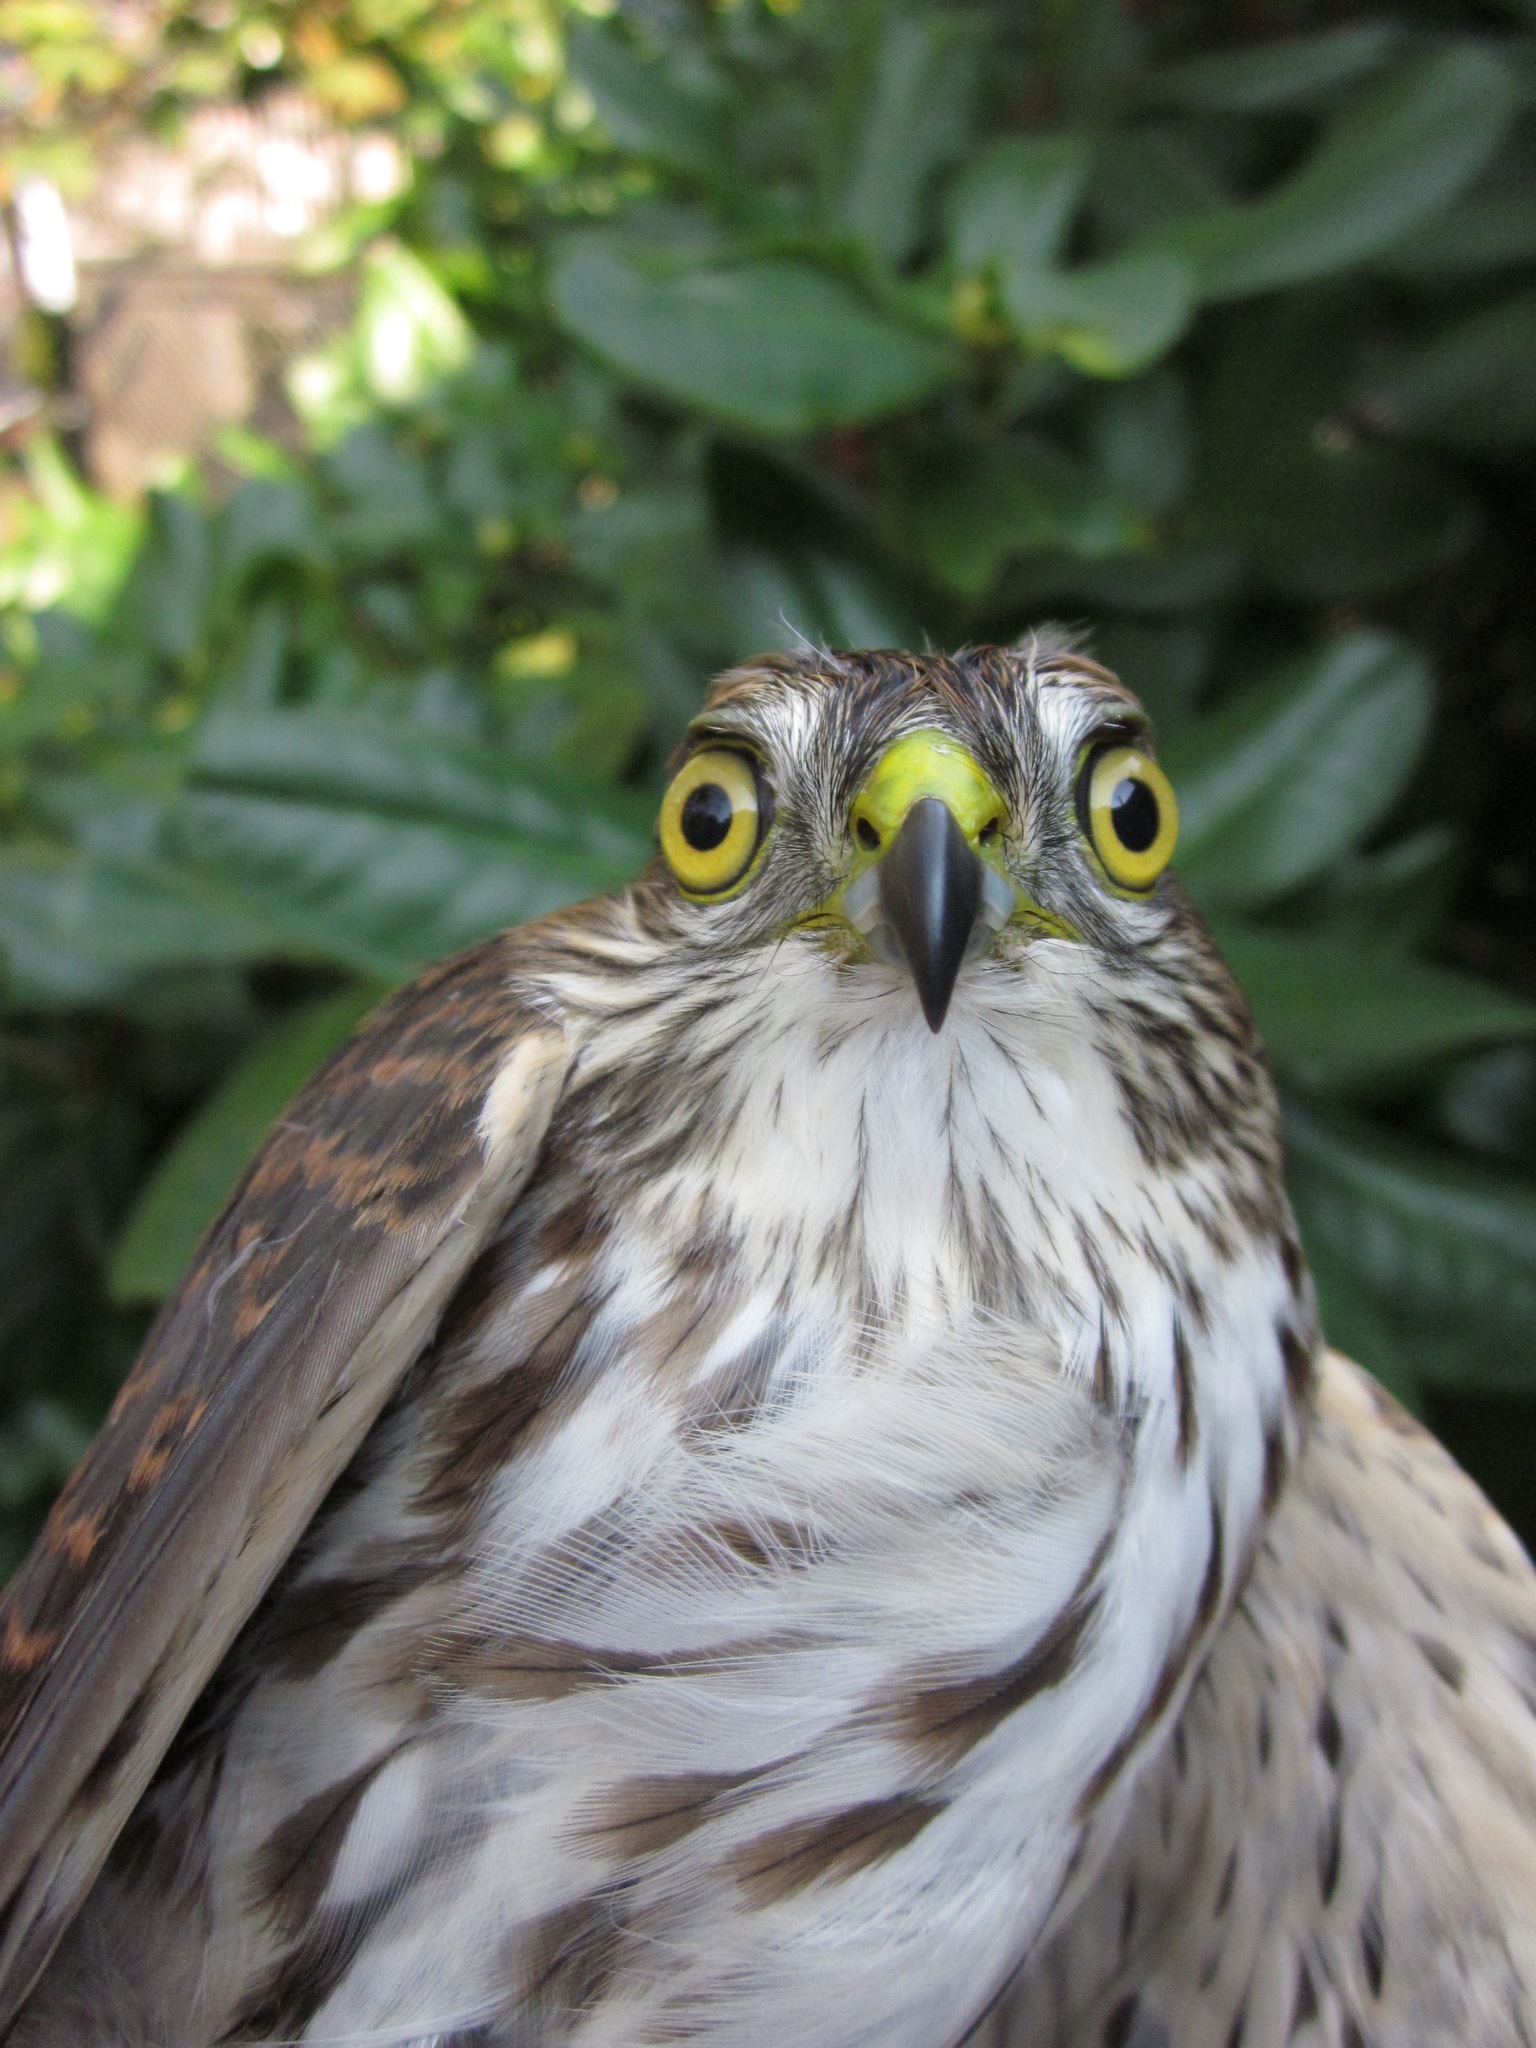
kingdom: Animalia
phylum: Chordata
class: Aves
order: Accipitriformes
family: Accipitridae
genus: Accipiter
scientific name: Accipiter striatus
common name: Sharp-shinned hawk
